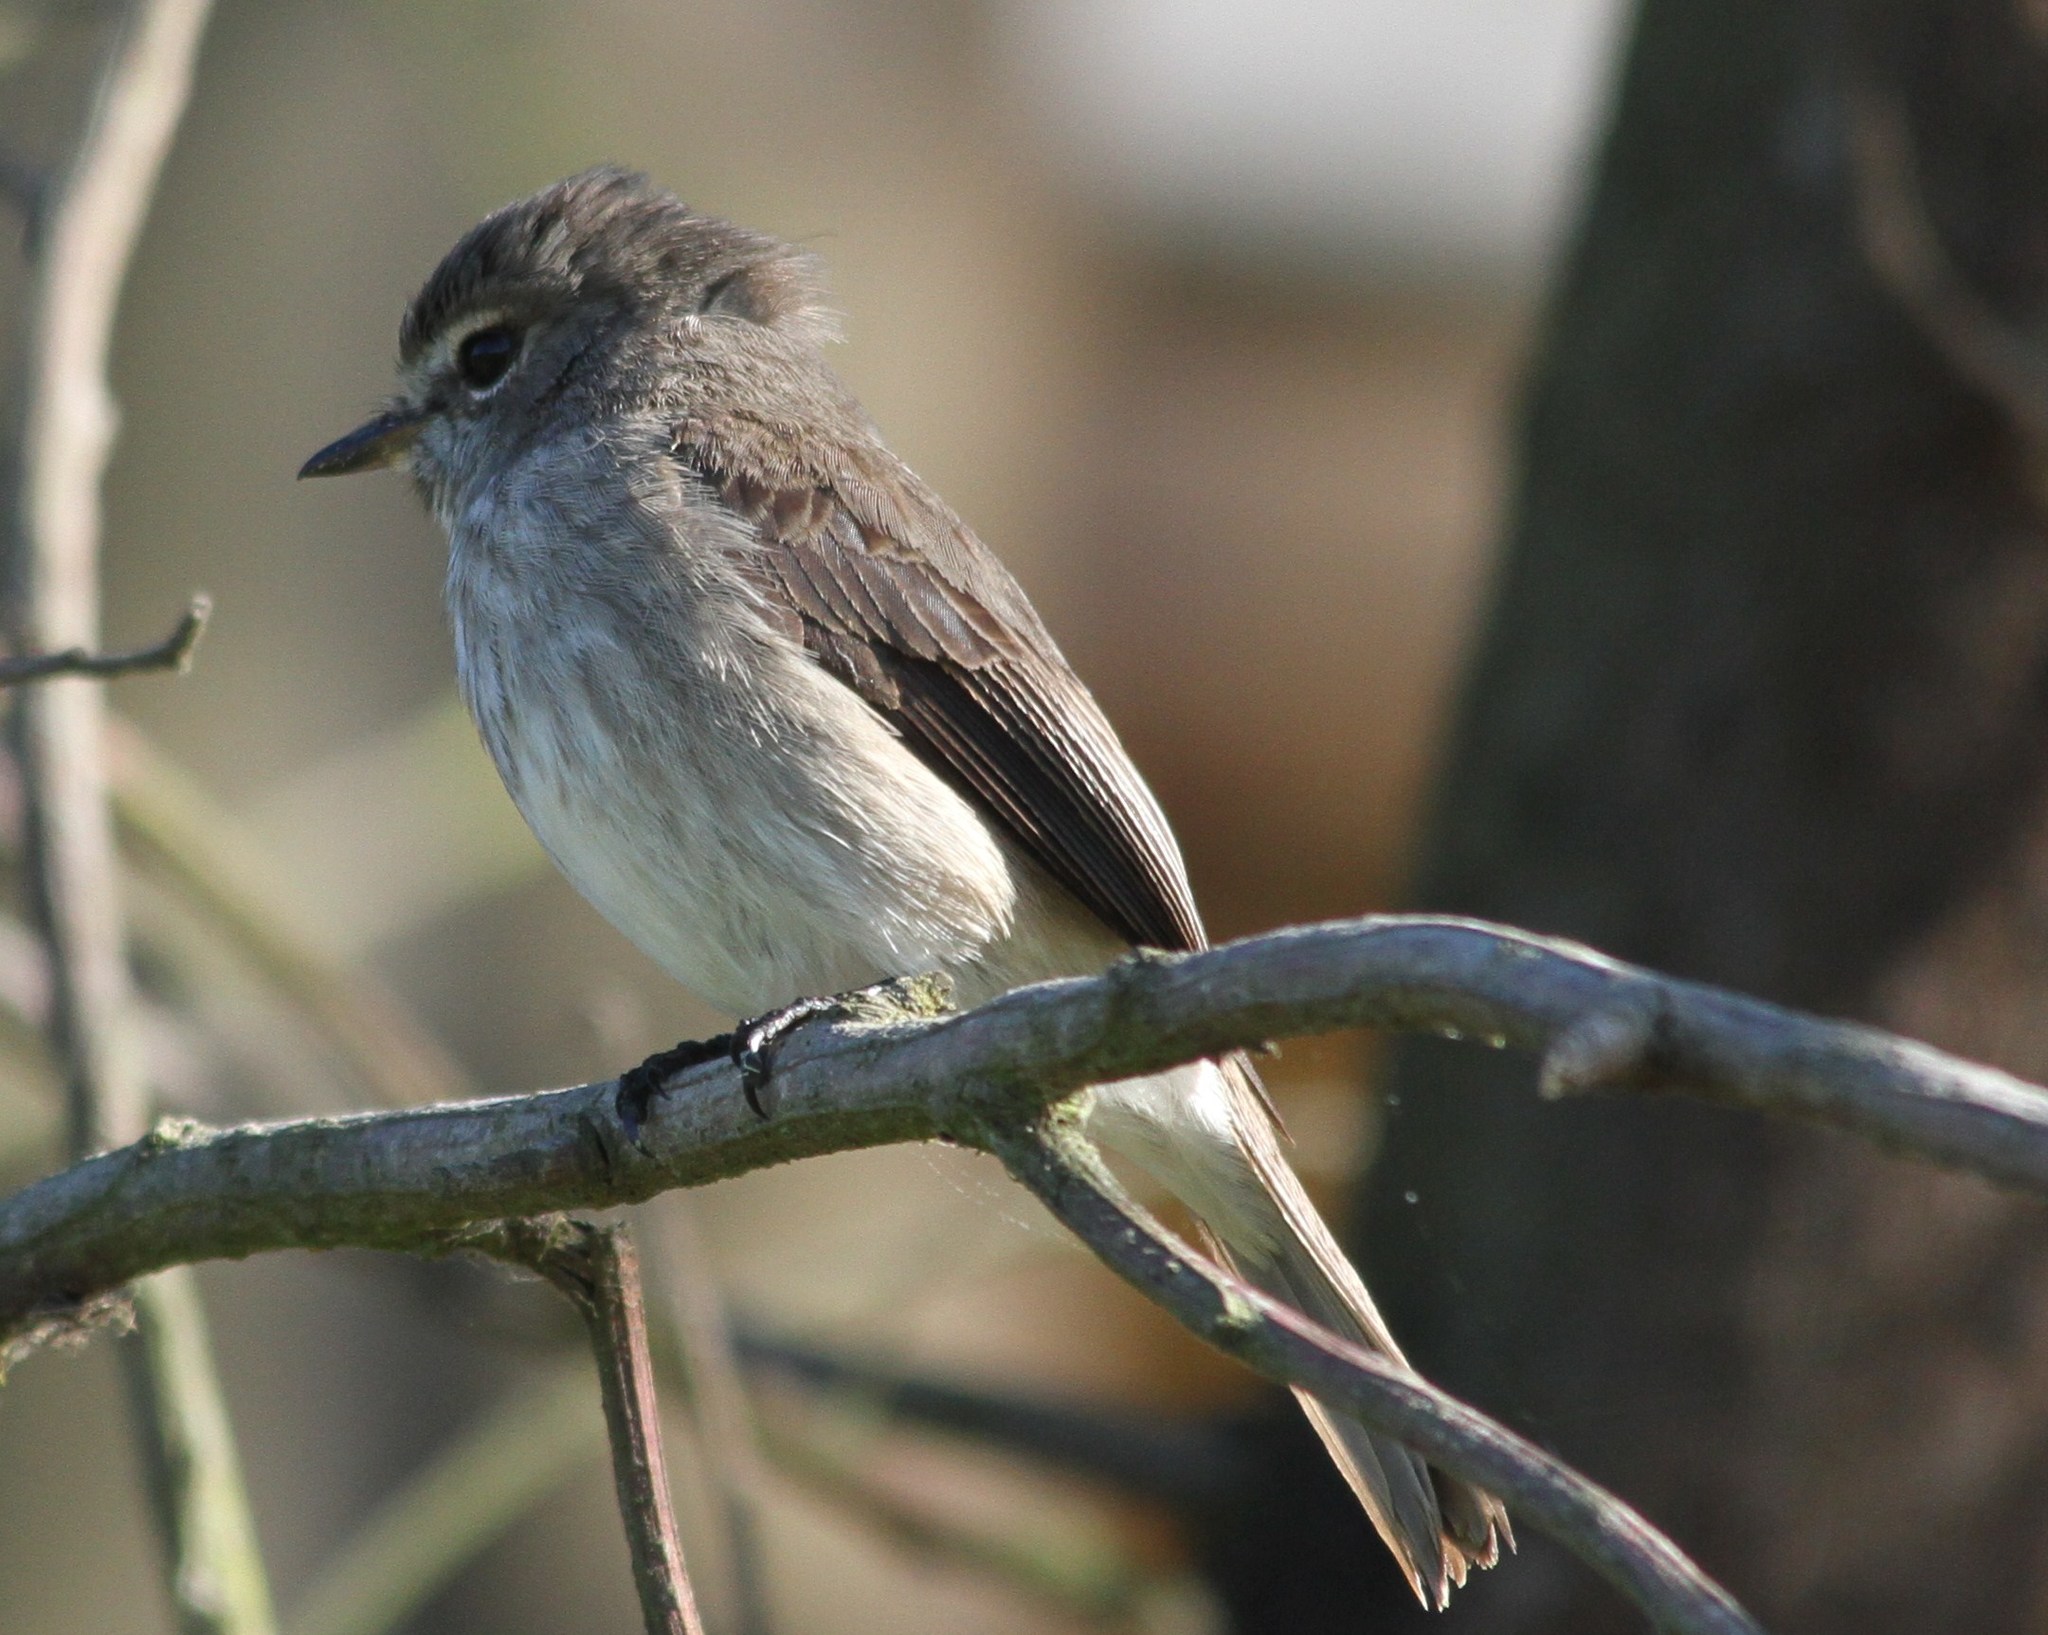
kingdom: Animalia
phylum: Chordata
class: Aves
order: Passeriformes
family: Muscicapidae
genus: Muscicapa
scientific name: Muscicapa adusta
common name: African dusky flycatcher
